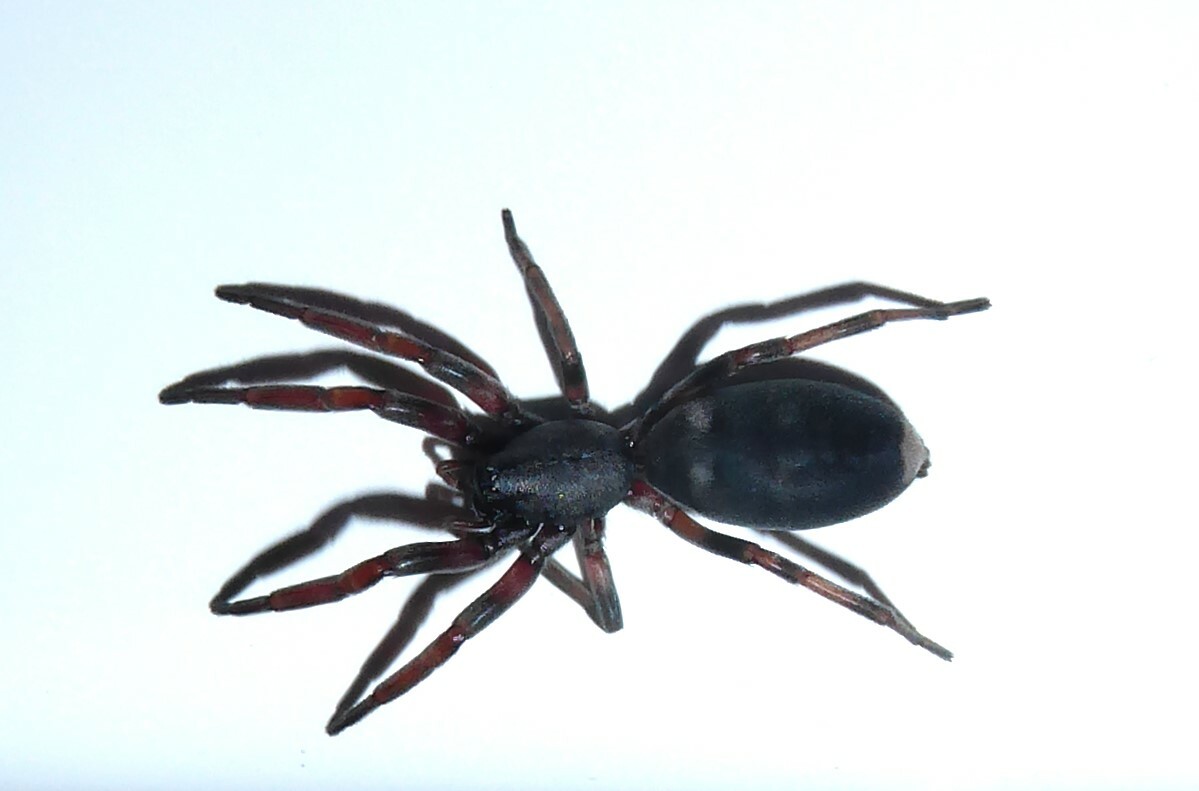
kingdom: Animalia
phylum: Arthropoda
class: Arachnida
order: Araneae
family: Lamponidae
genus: Lampona
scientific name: Lampona cylindrata
